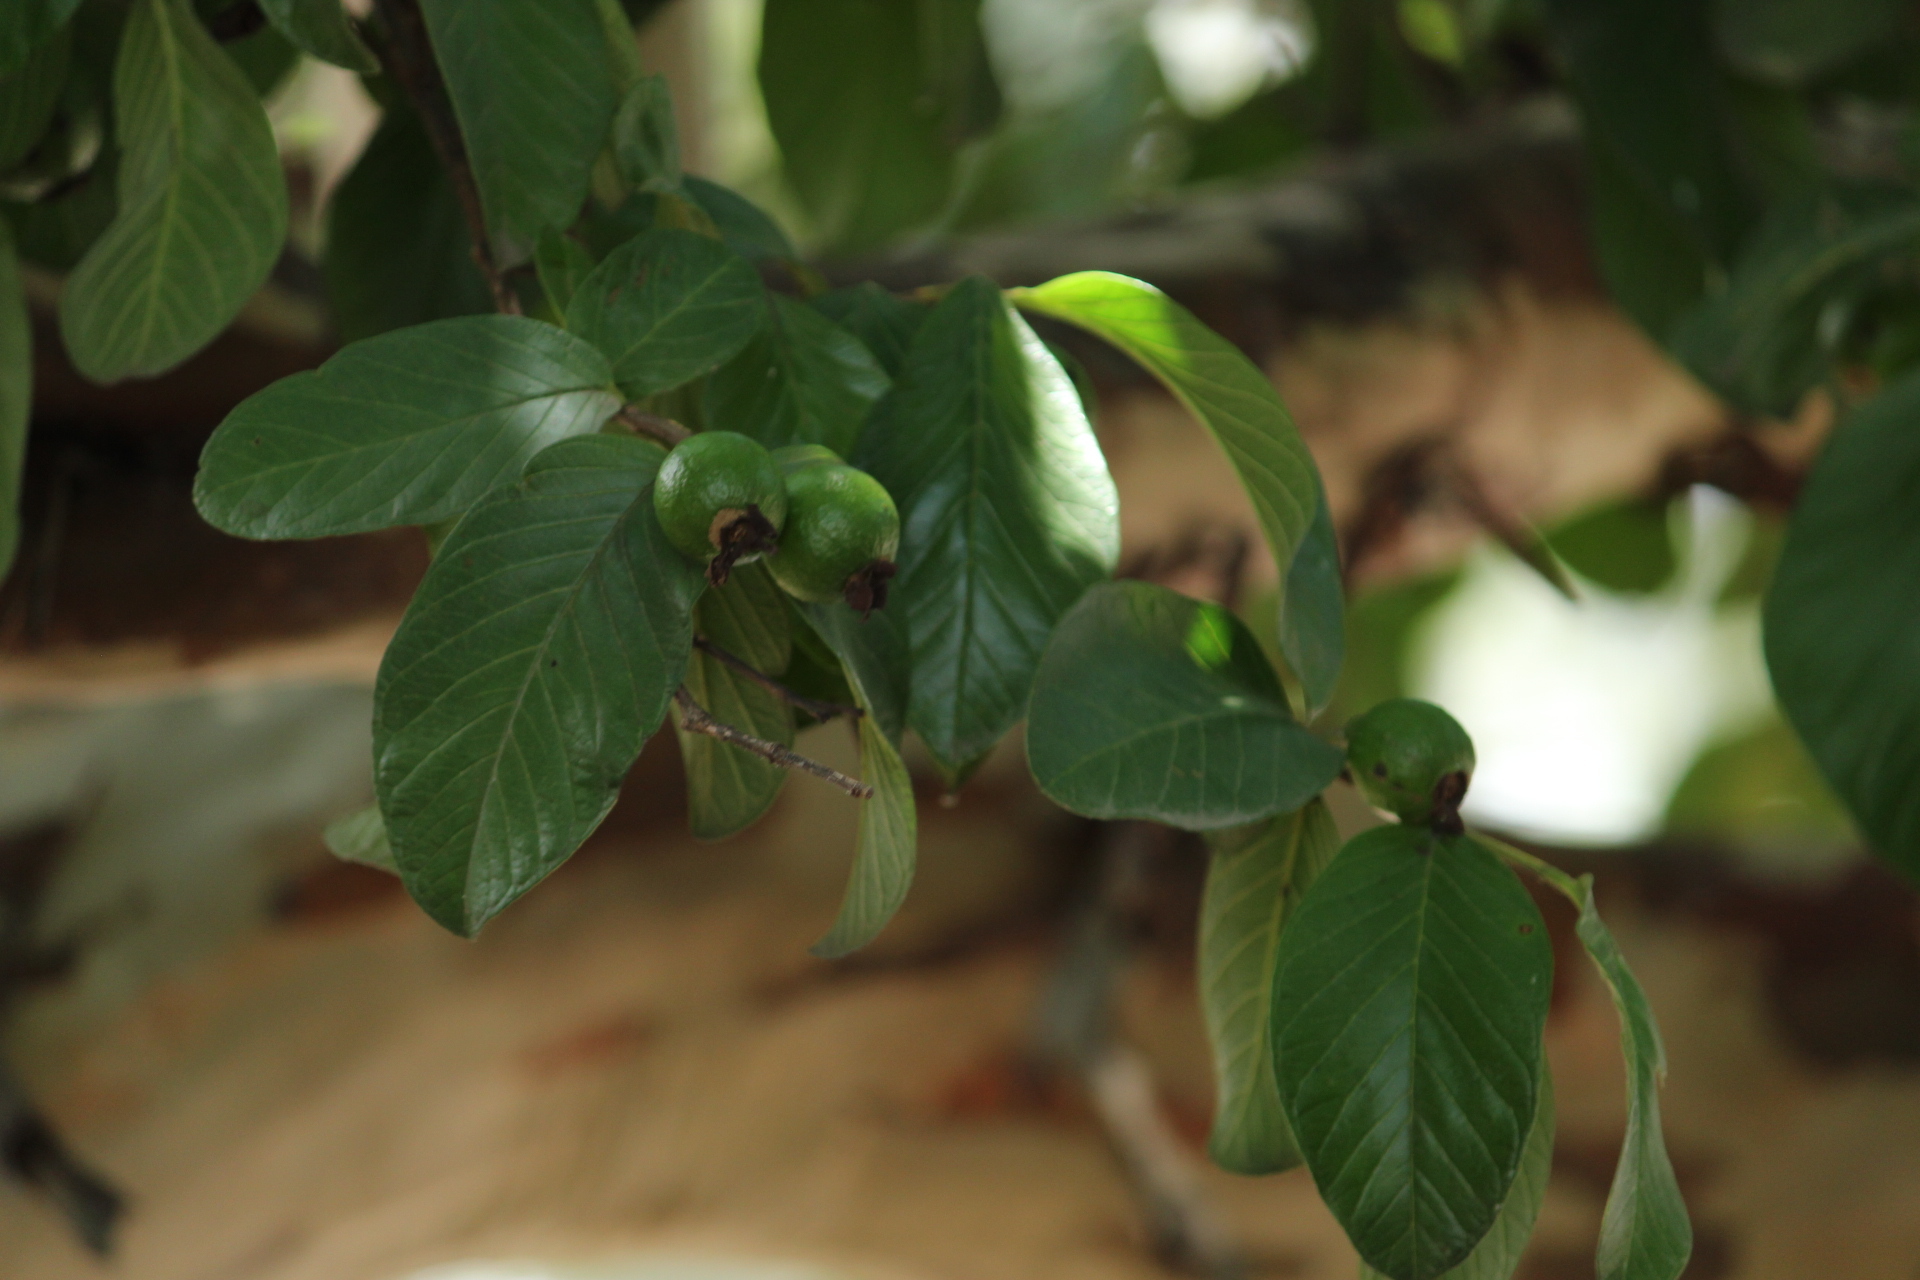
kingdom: Plantae
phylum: Tracheophyta
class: Magnoliopsida
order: Myrtales
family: Myrtaceae
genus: Psidium
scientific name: Psidium guajava
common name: Guava
